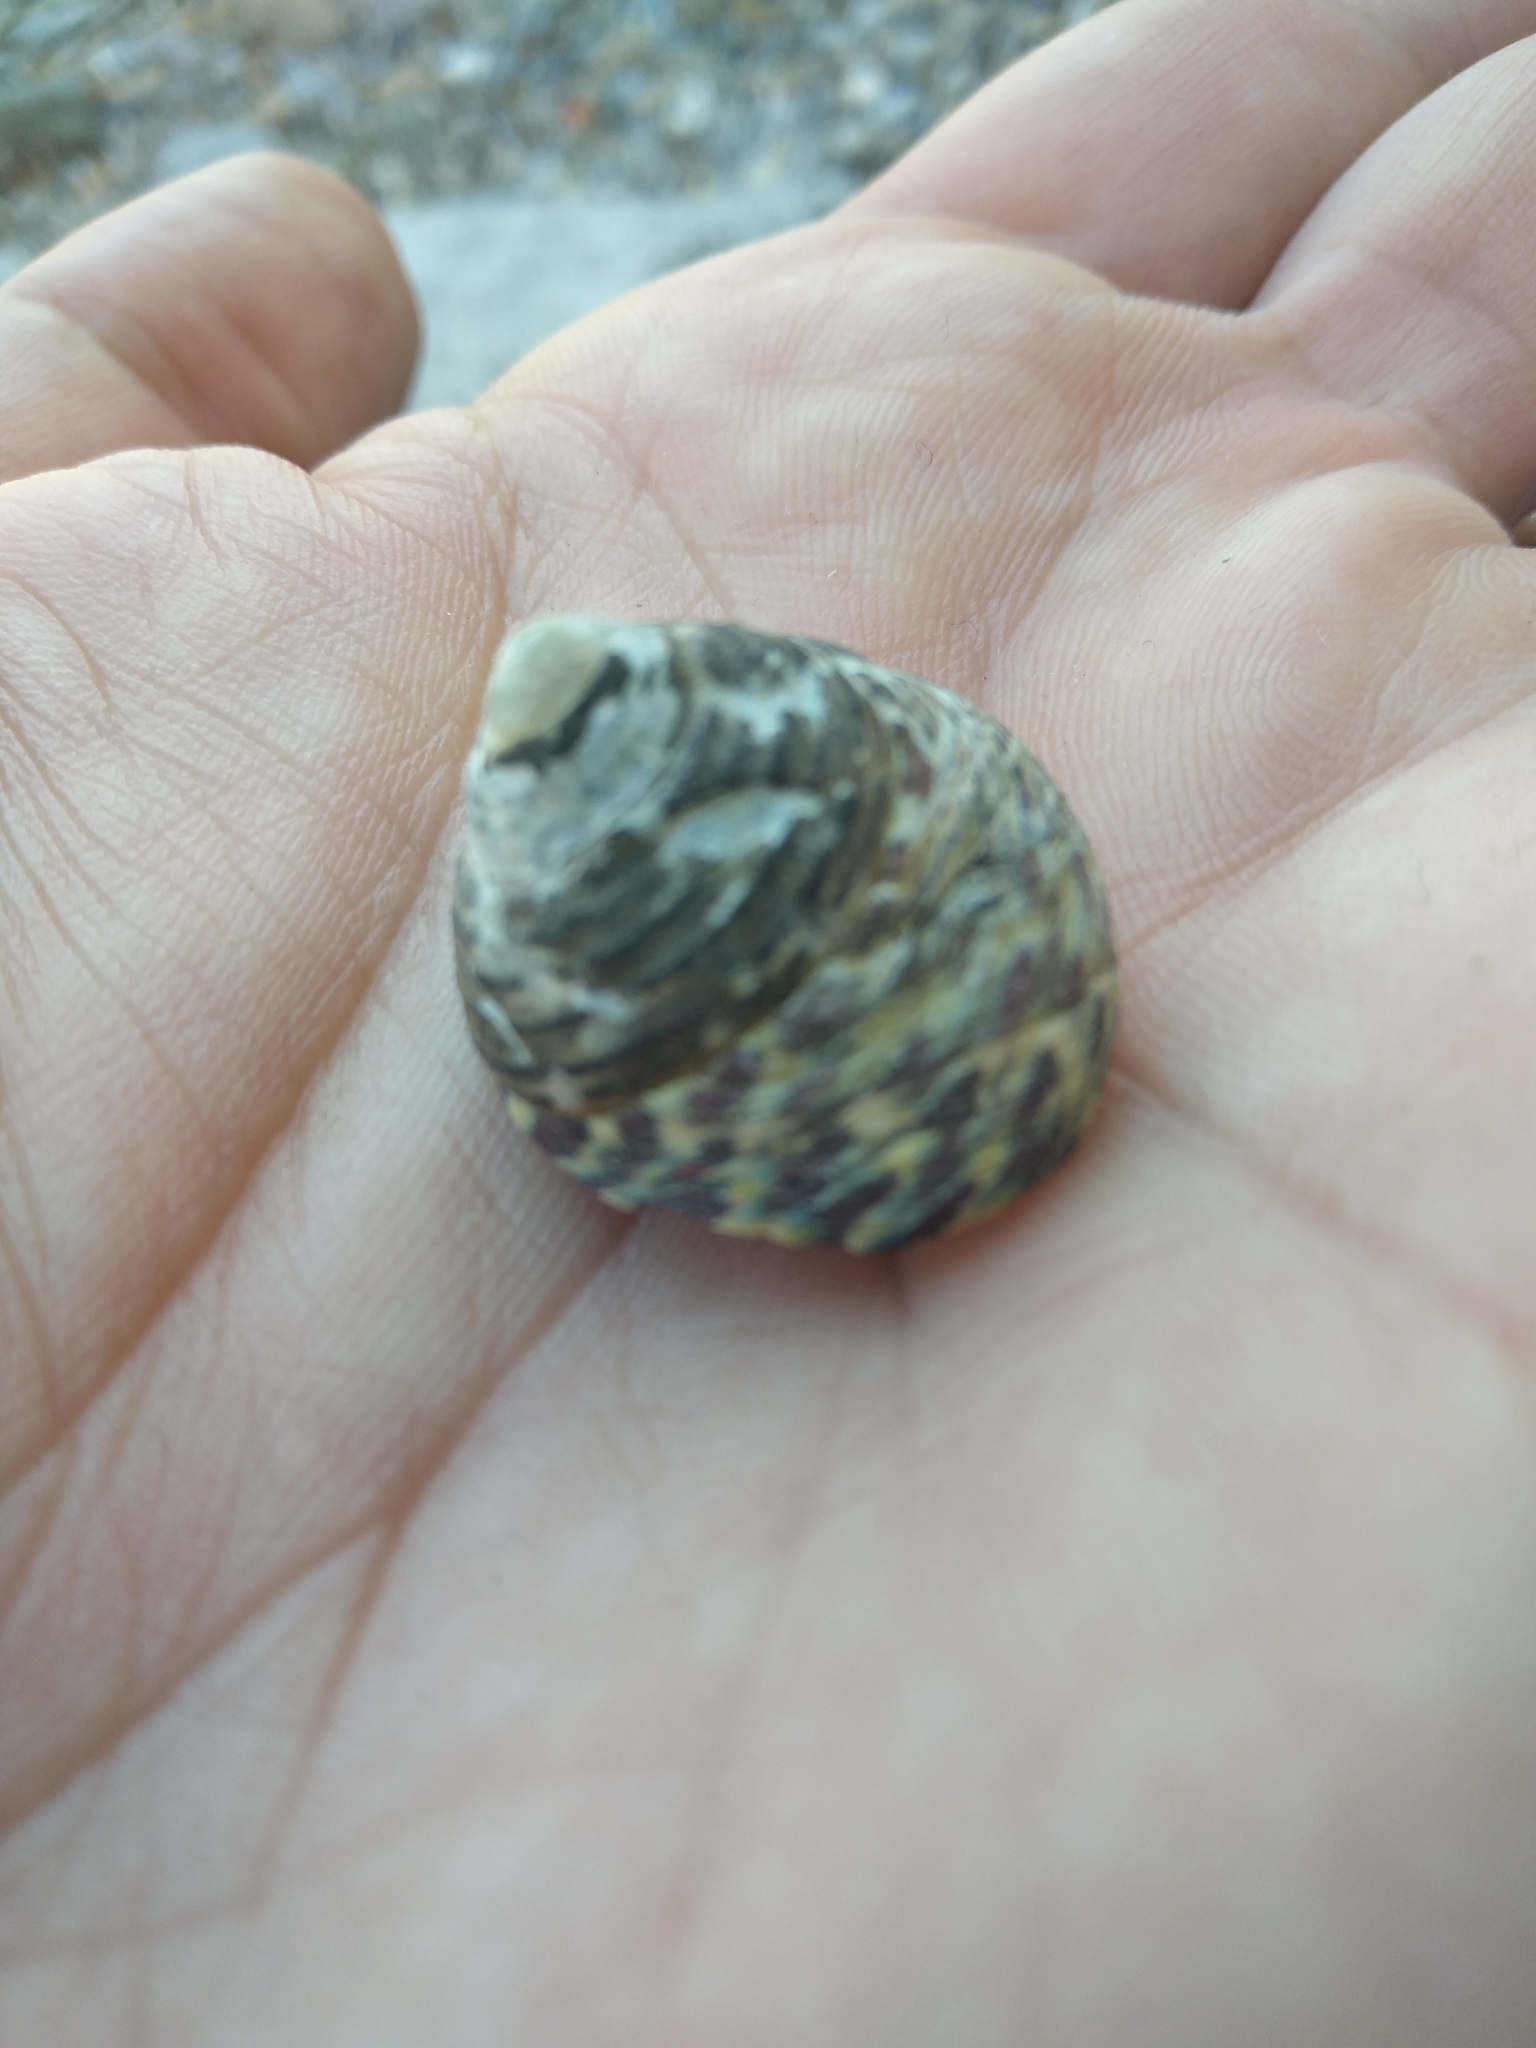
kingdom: Animalia
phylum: Mollusca
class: Gastropoda
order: Trochida
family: Trochidae
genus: Phorcus
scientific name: Phorcus turbinatus
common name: Turbinate monodont
